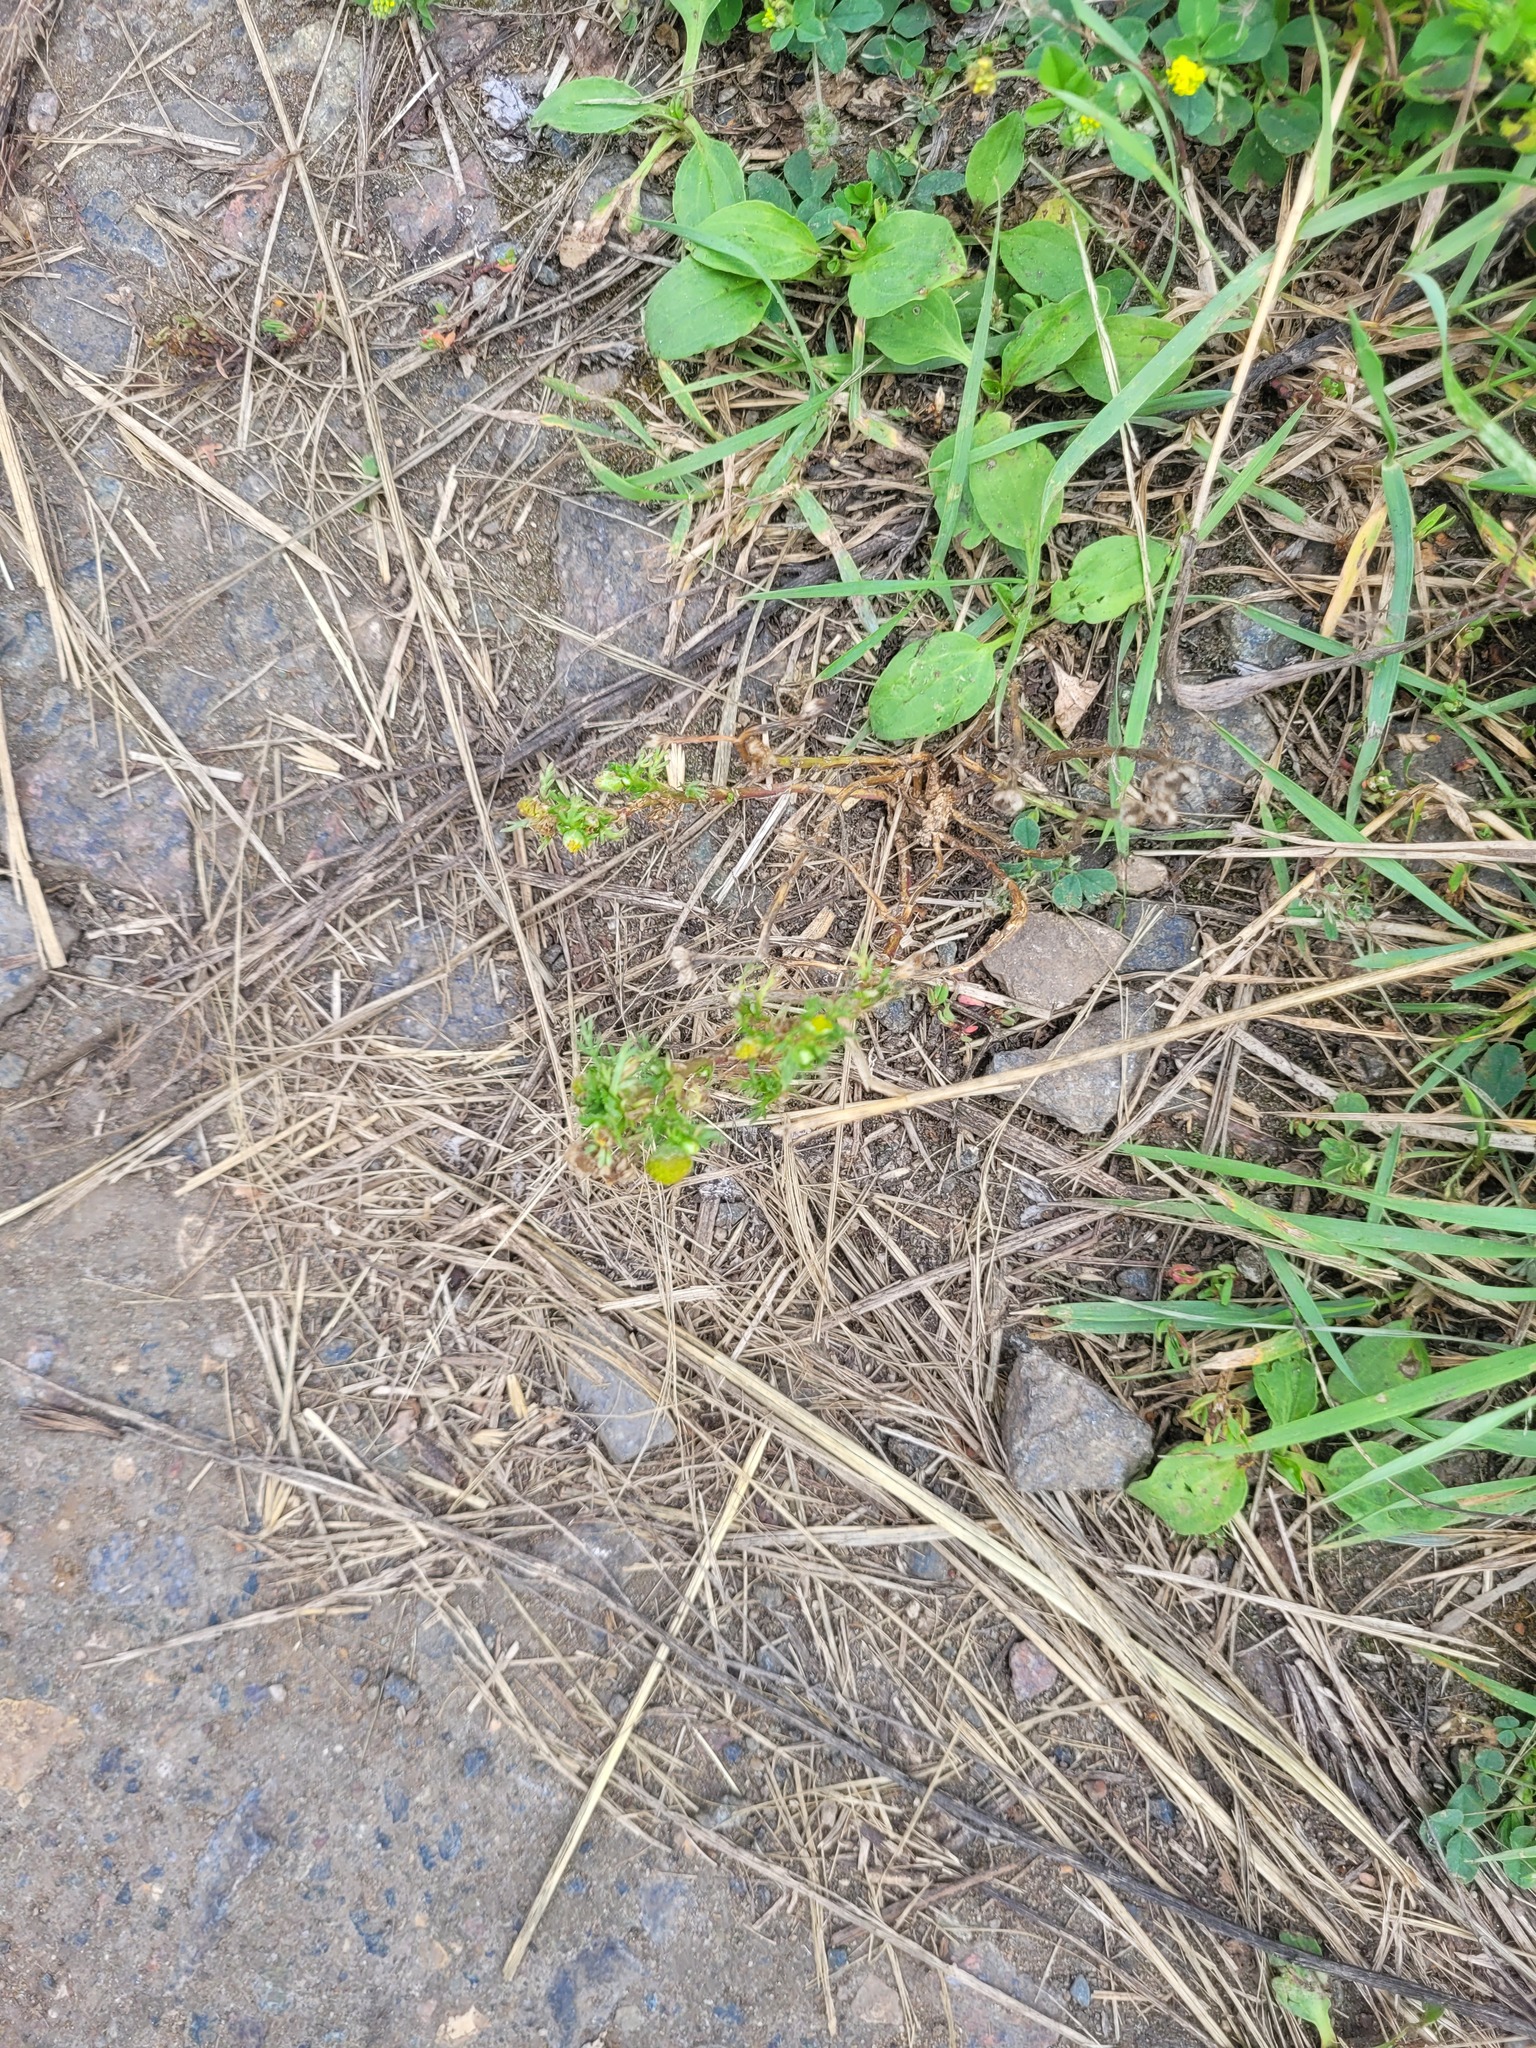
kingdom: Plantae
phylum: Tracheophyta
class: Magnoliopsida
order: Asterales
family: Asteraceae
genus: Matricaria
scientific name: Matricaria discoidea
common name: Disc mayweed
